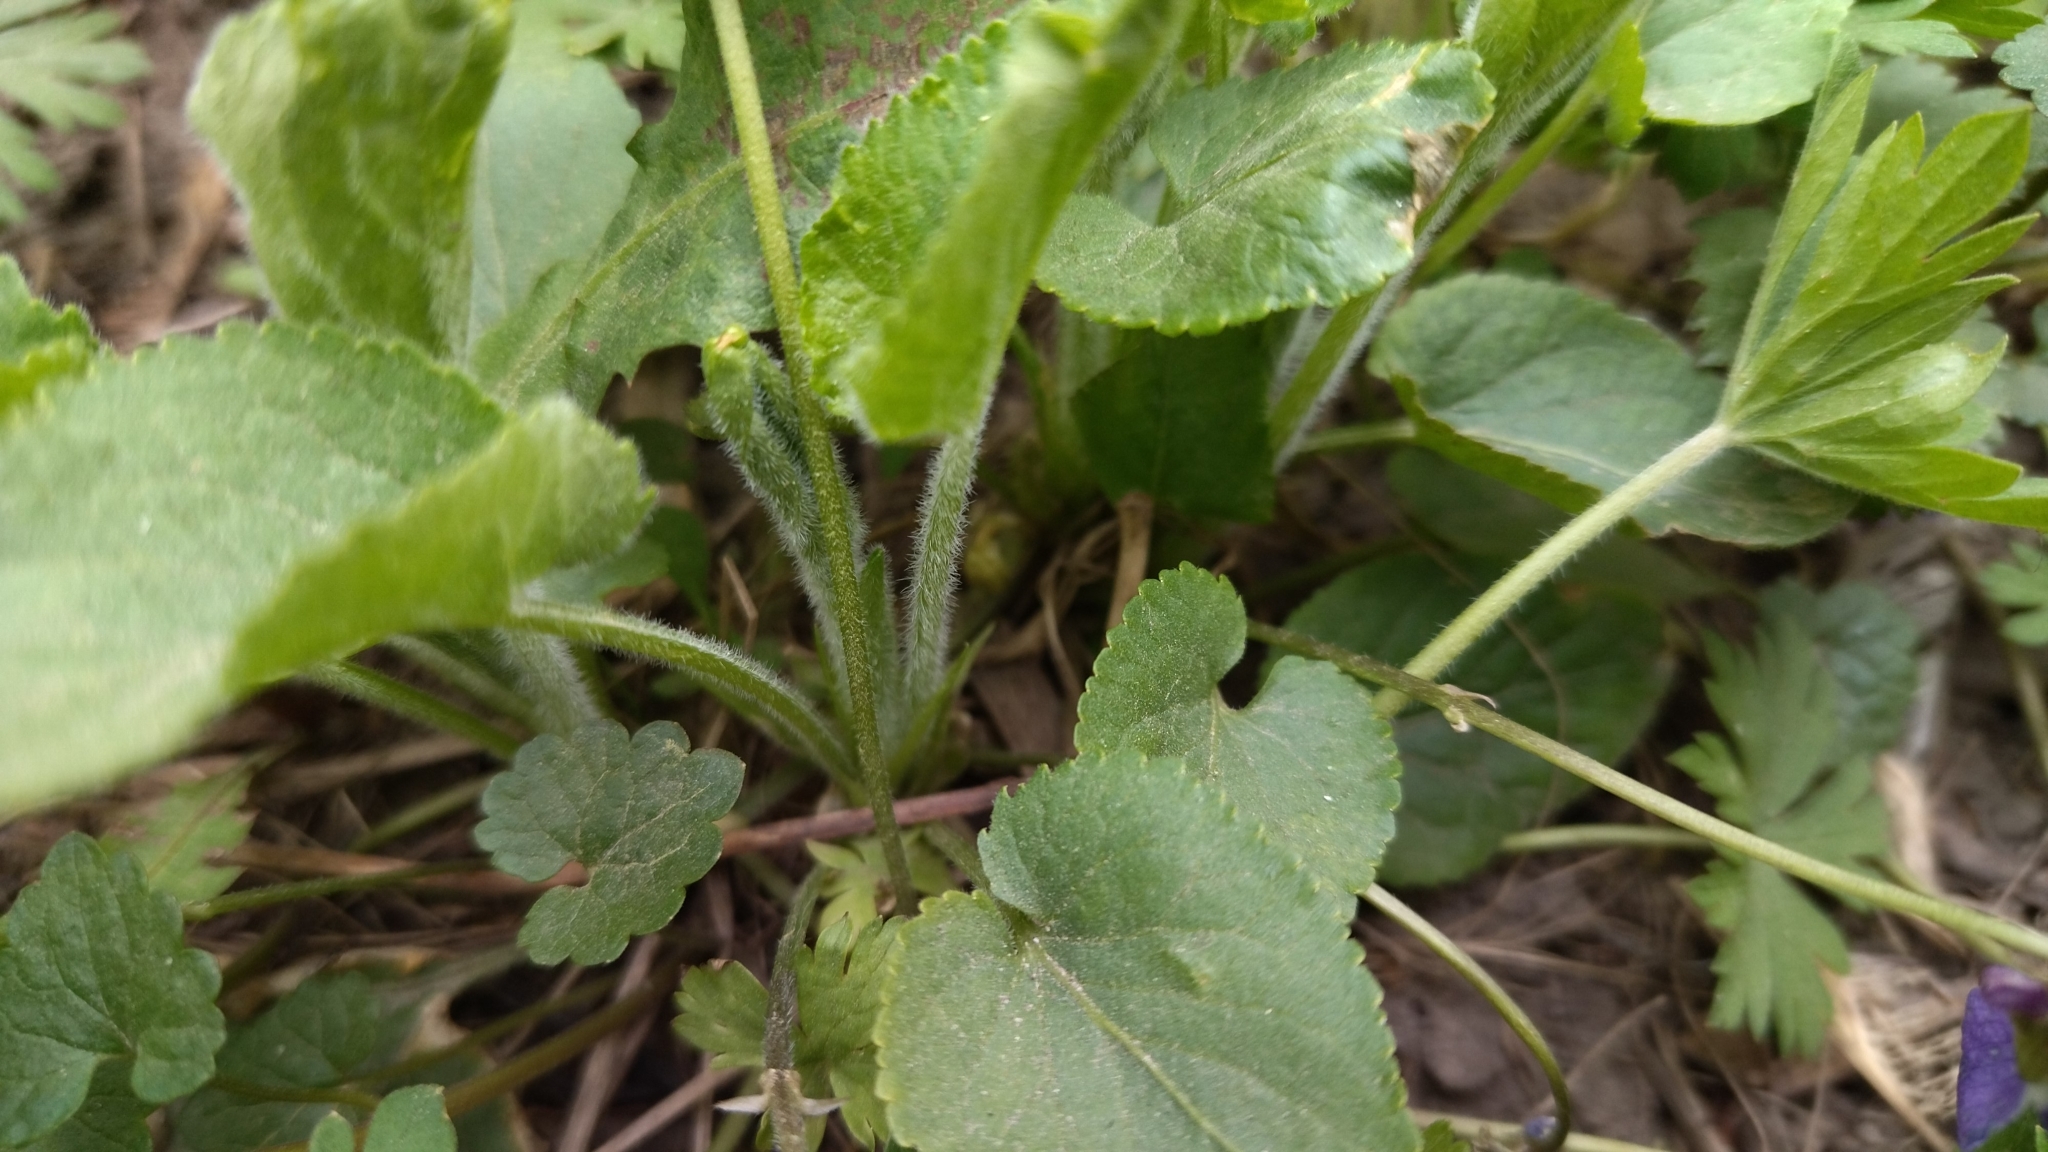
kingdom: Plantae
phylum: Tracheophyta
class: Magnoliopsida
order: Malpighiales
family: Violaceae
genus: Viola
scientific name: Viola hirta
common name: Hairy violet
